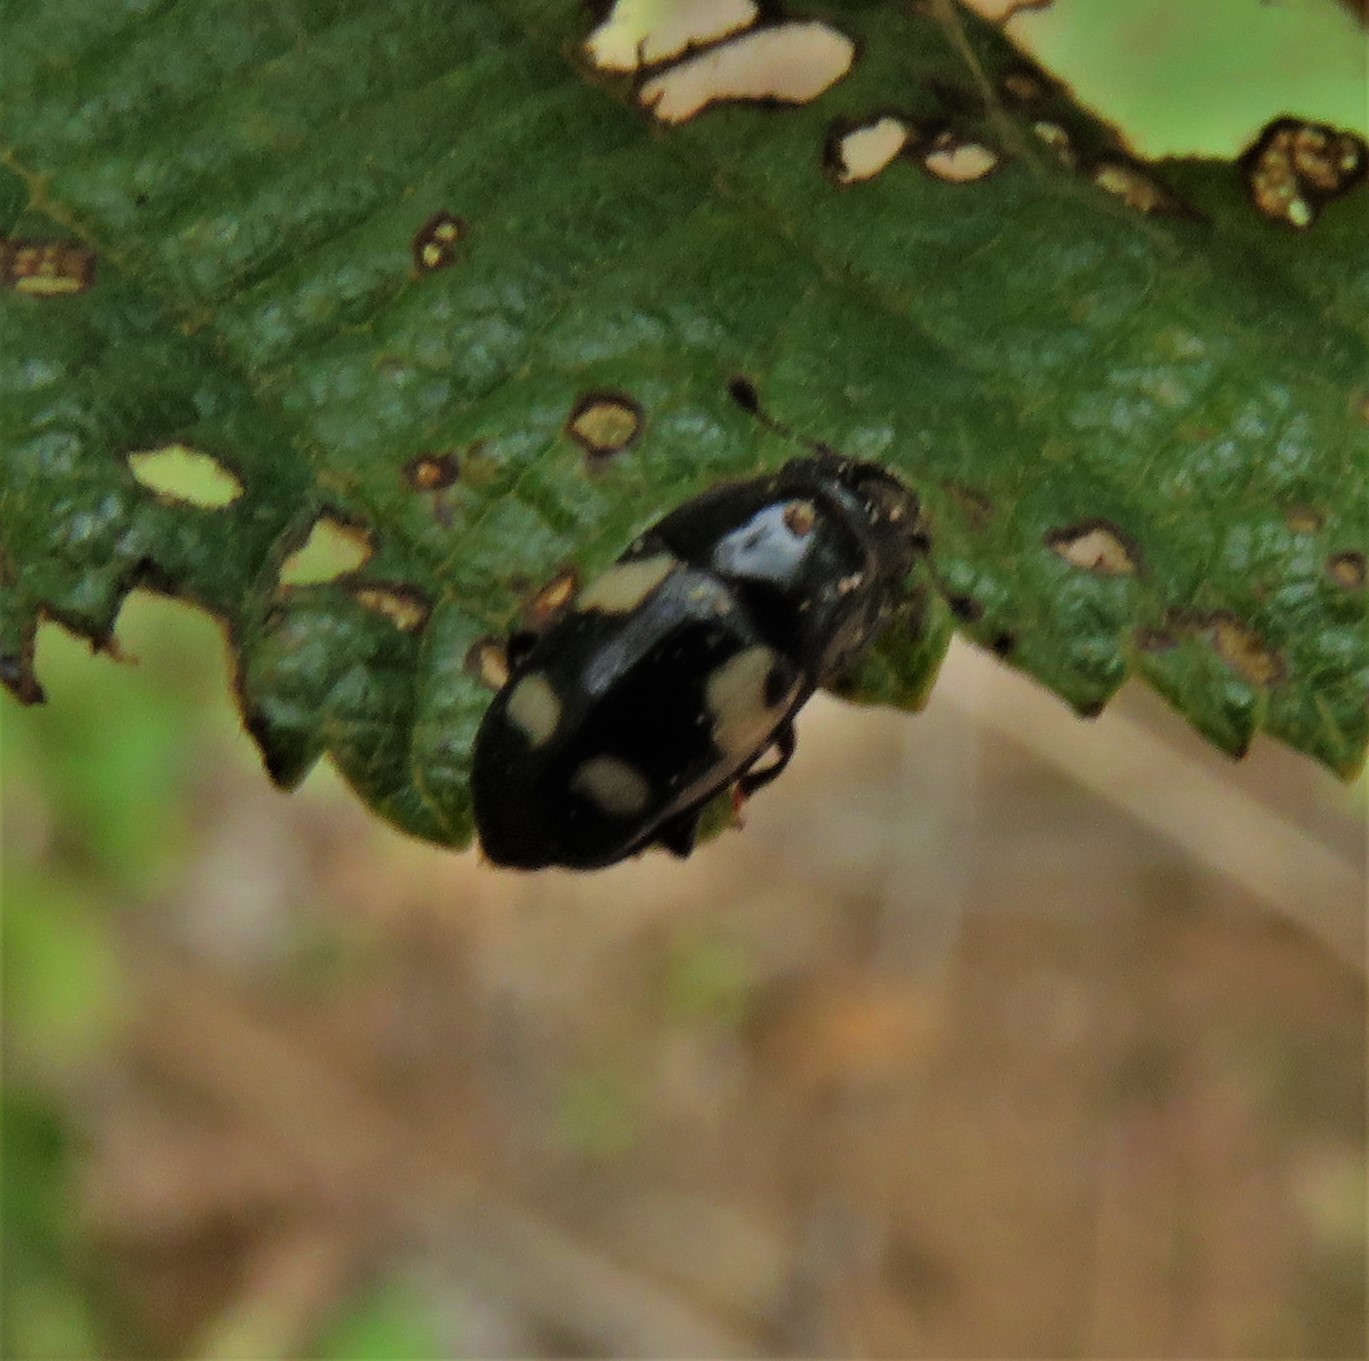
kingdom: Animalia
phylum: Arthropoda
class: Insecta
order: Coleoptera
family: Nitidulidae
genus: Glischrochilus
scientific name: Glischrochilus quadrisignatus
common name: Picnic beetle
